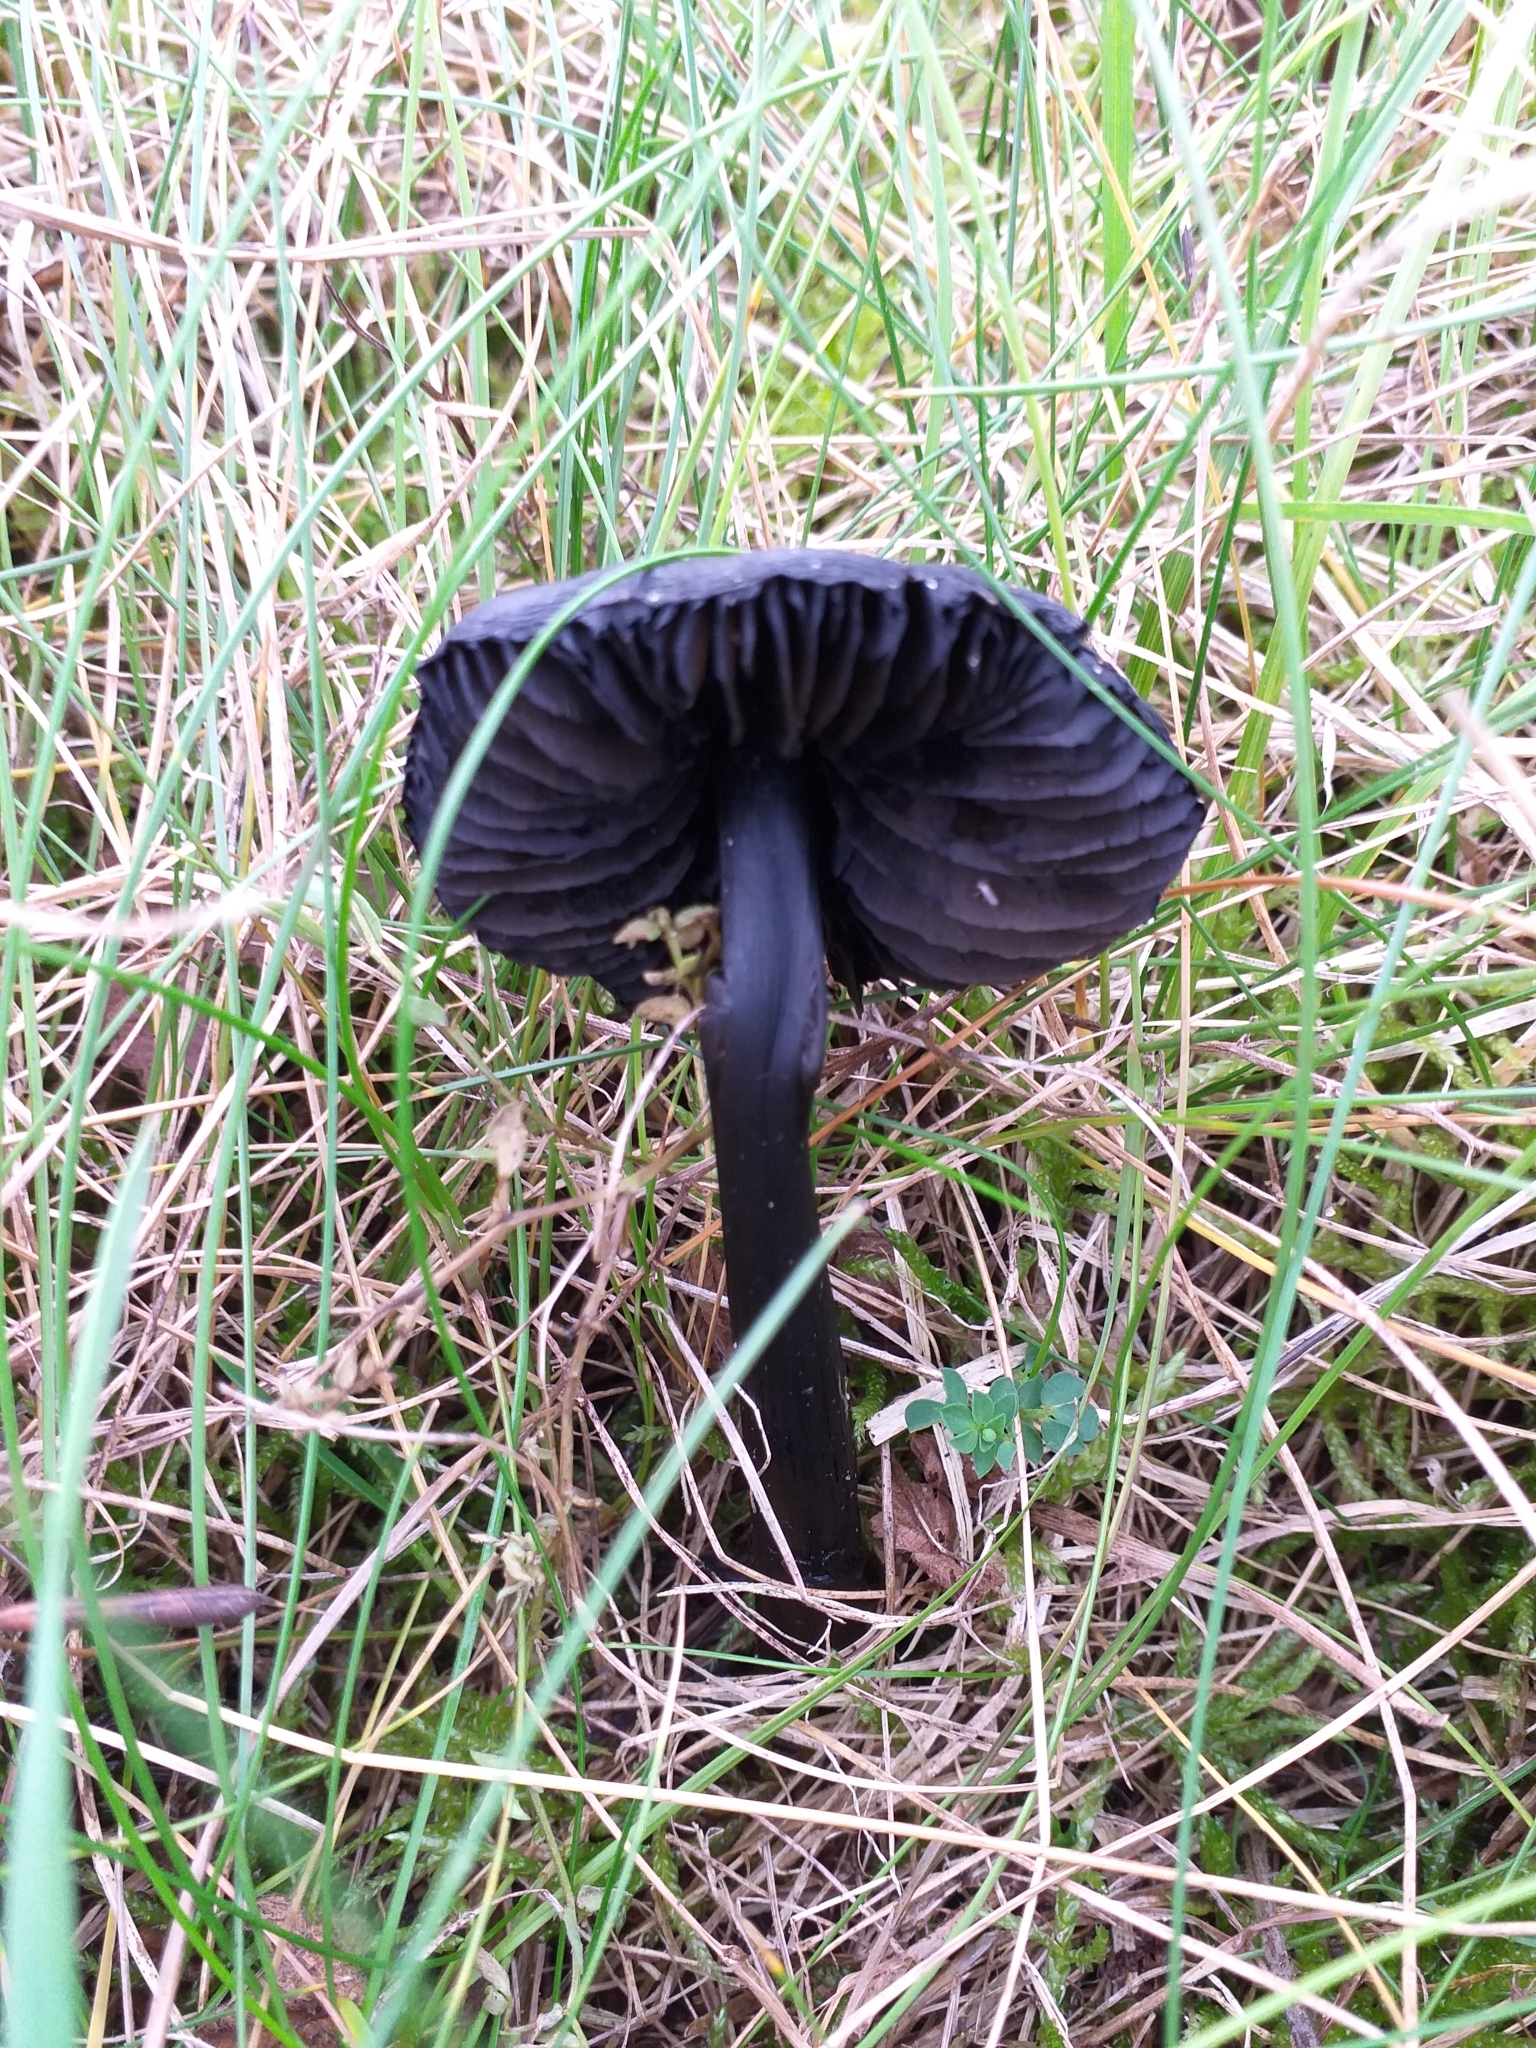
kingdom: Fungi
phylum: Basidiomycota
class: Agaricomycetes
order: Agaricales
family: Hygrophoraceae
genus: Hygrocybe
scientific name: Hygrocybe conica
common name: Blackening wax-cap
